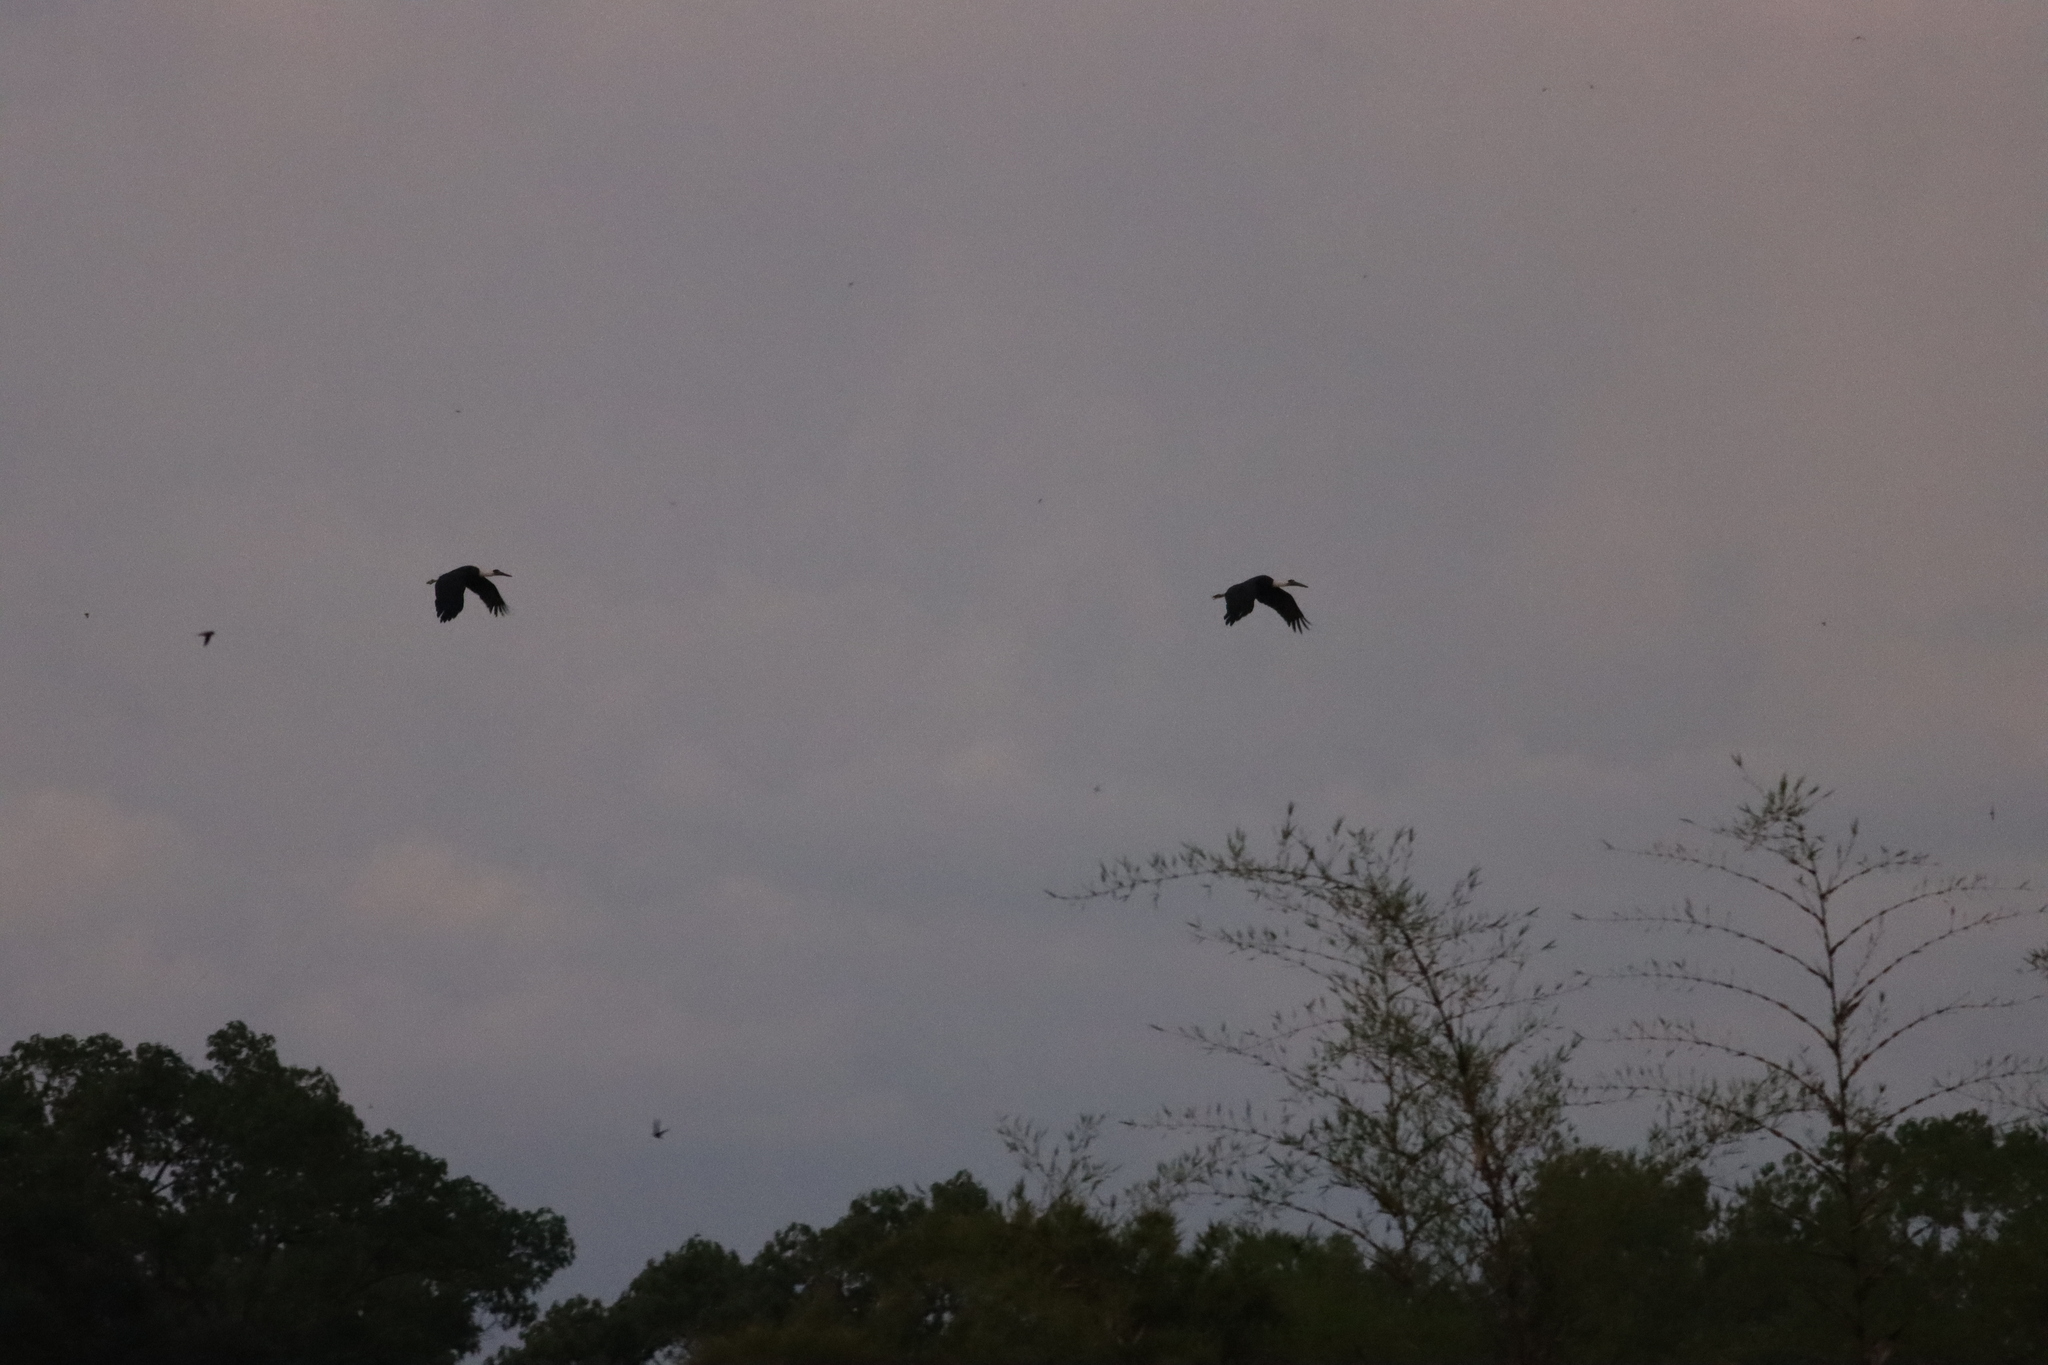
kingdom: Animalia
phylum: Chordata
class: Aves
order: Ciconiiformes
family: Ciconiidae
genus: Ciconia
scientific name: Ciconia episcopus
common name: Woolly-necked stork
